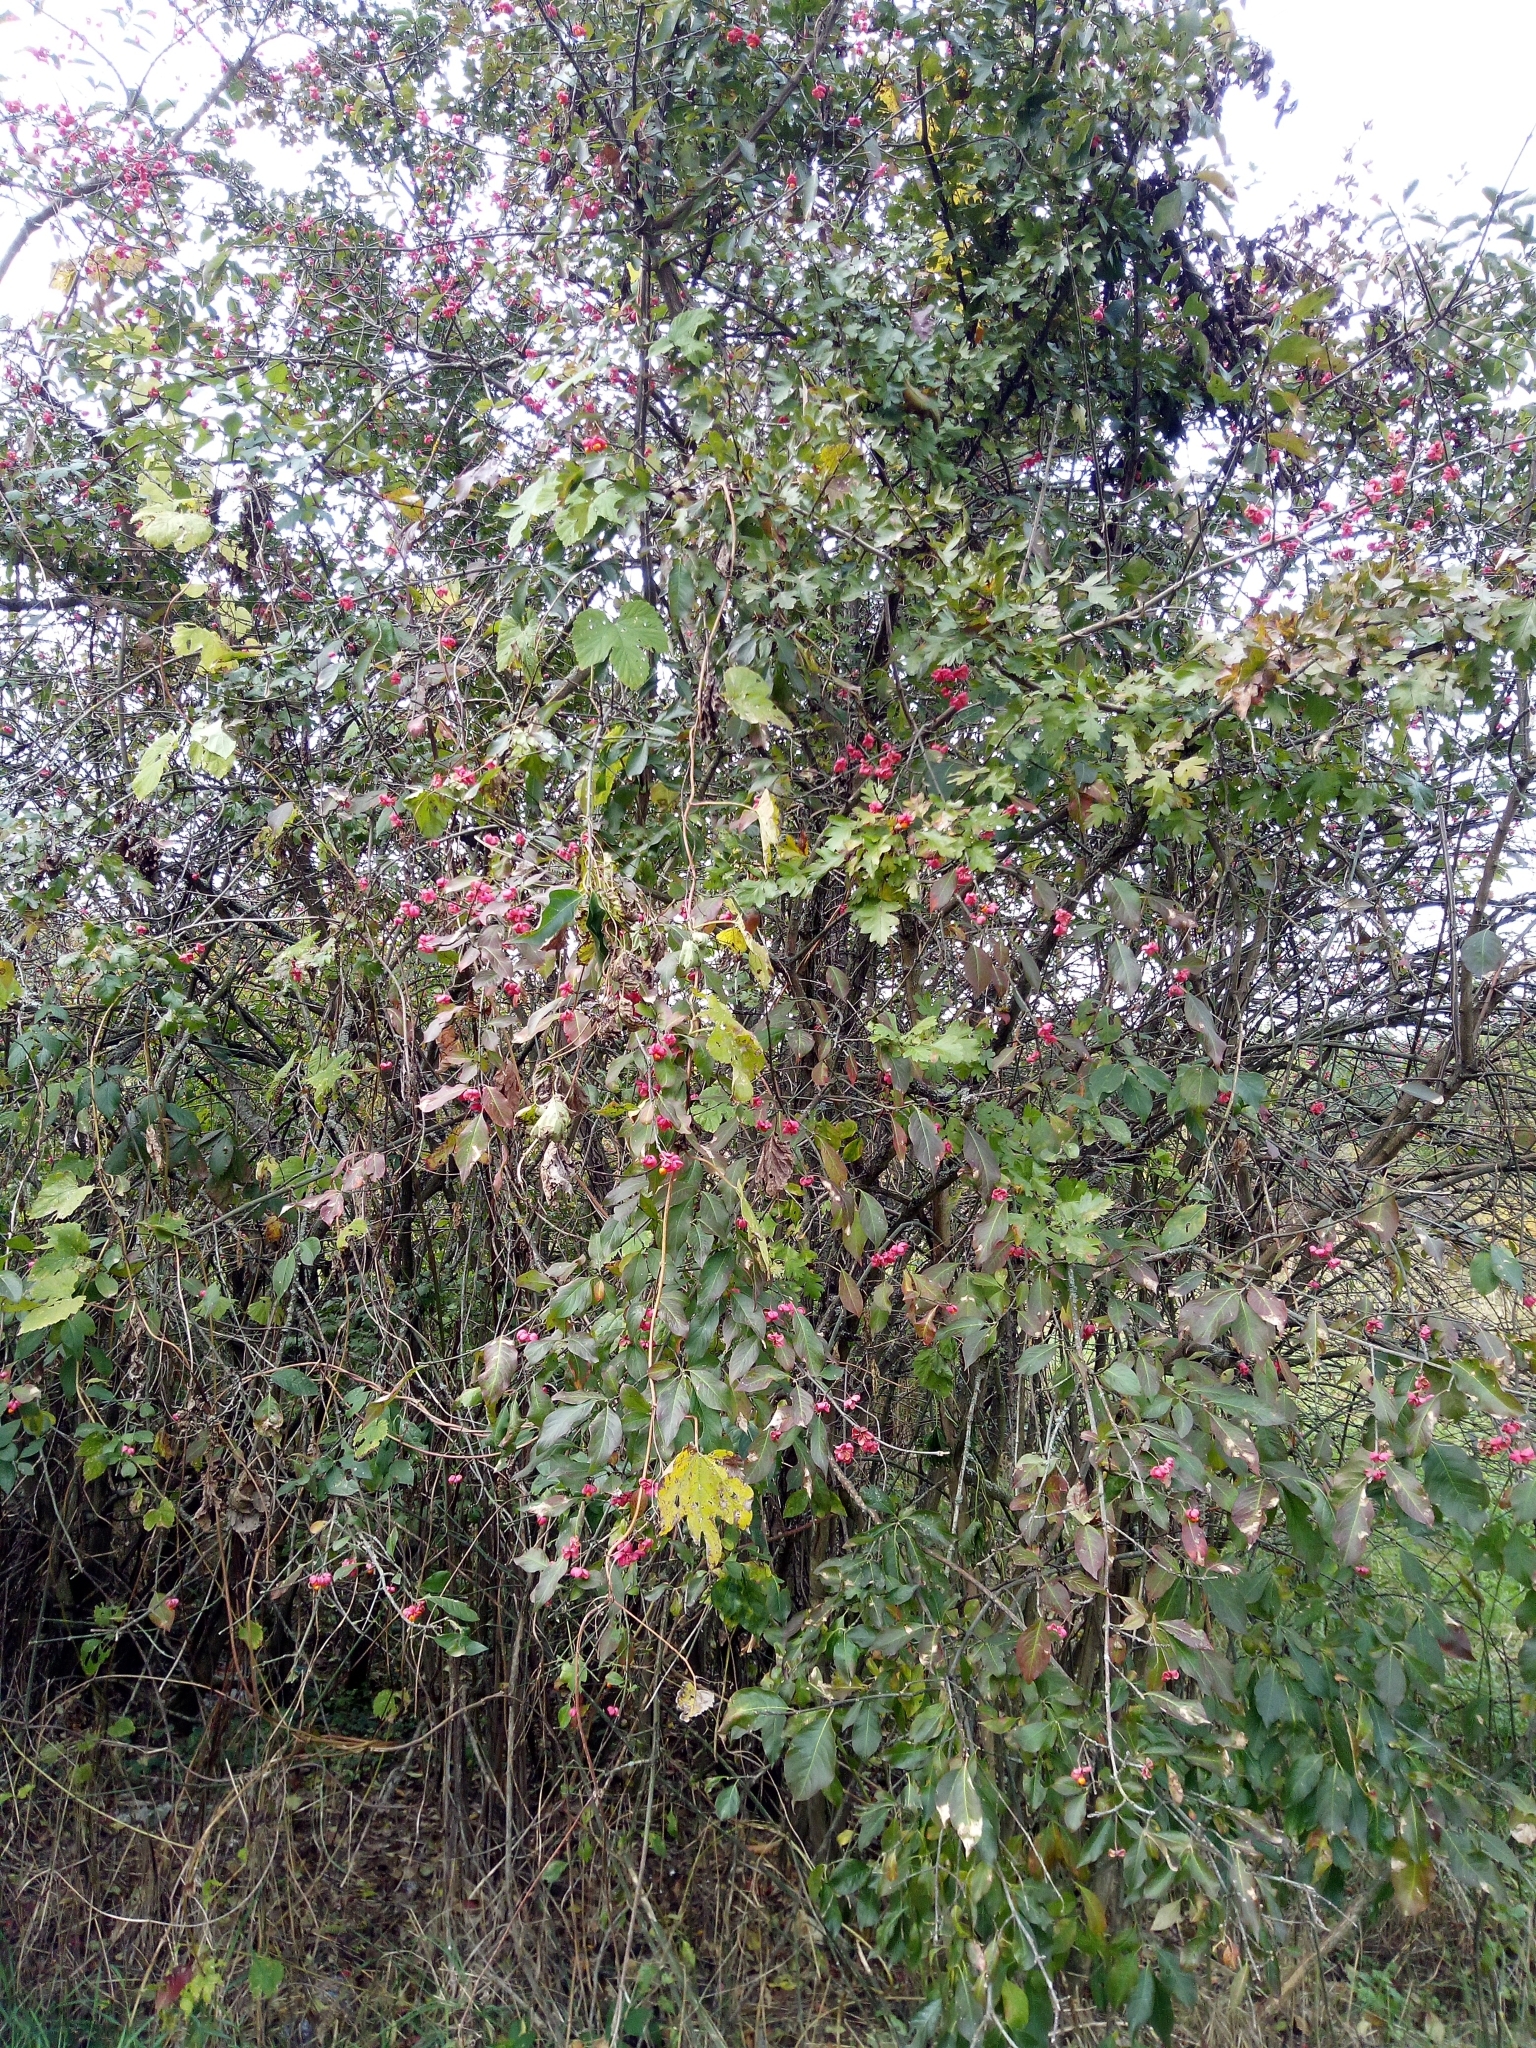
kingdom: Plantae
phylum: Tracheophyta
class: Magnoliopsida
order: Celastrales
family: Celastraceae
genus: Euonymus
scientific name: Euonymus europaeus
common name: Spindle
